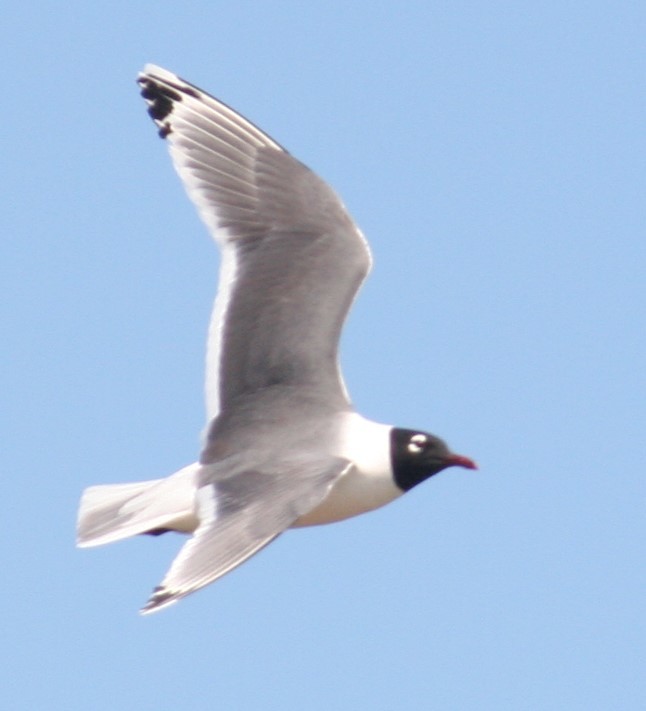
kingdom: Animalia
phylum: Chordata
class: Aves
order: Charadriiformes
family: Laridae
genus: Leucophaeus
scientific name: Leucophaeus pipixcan
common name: Franklin's gull
